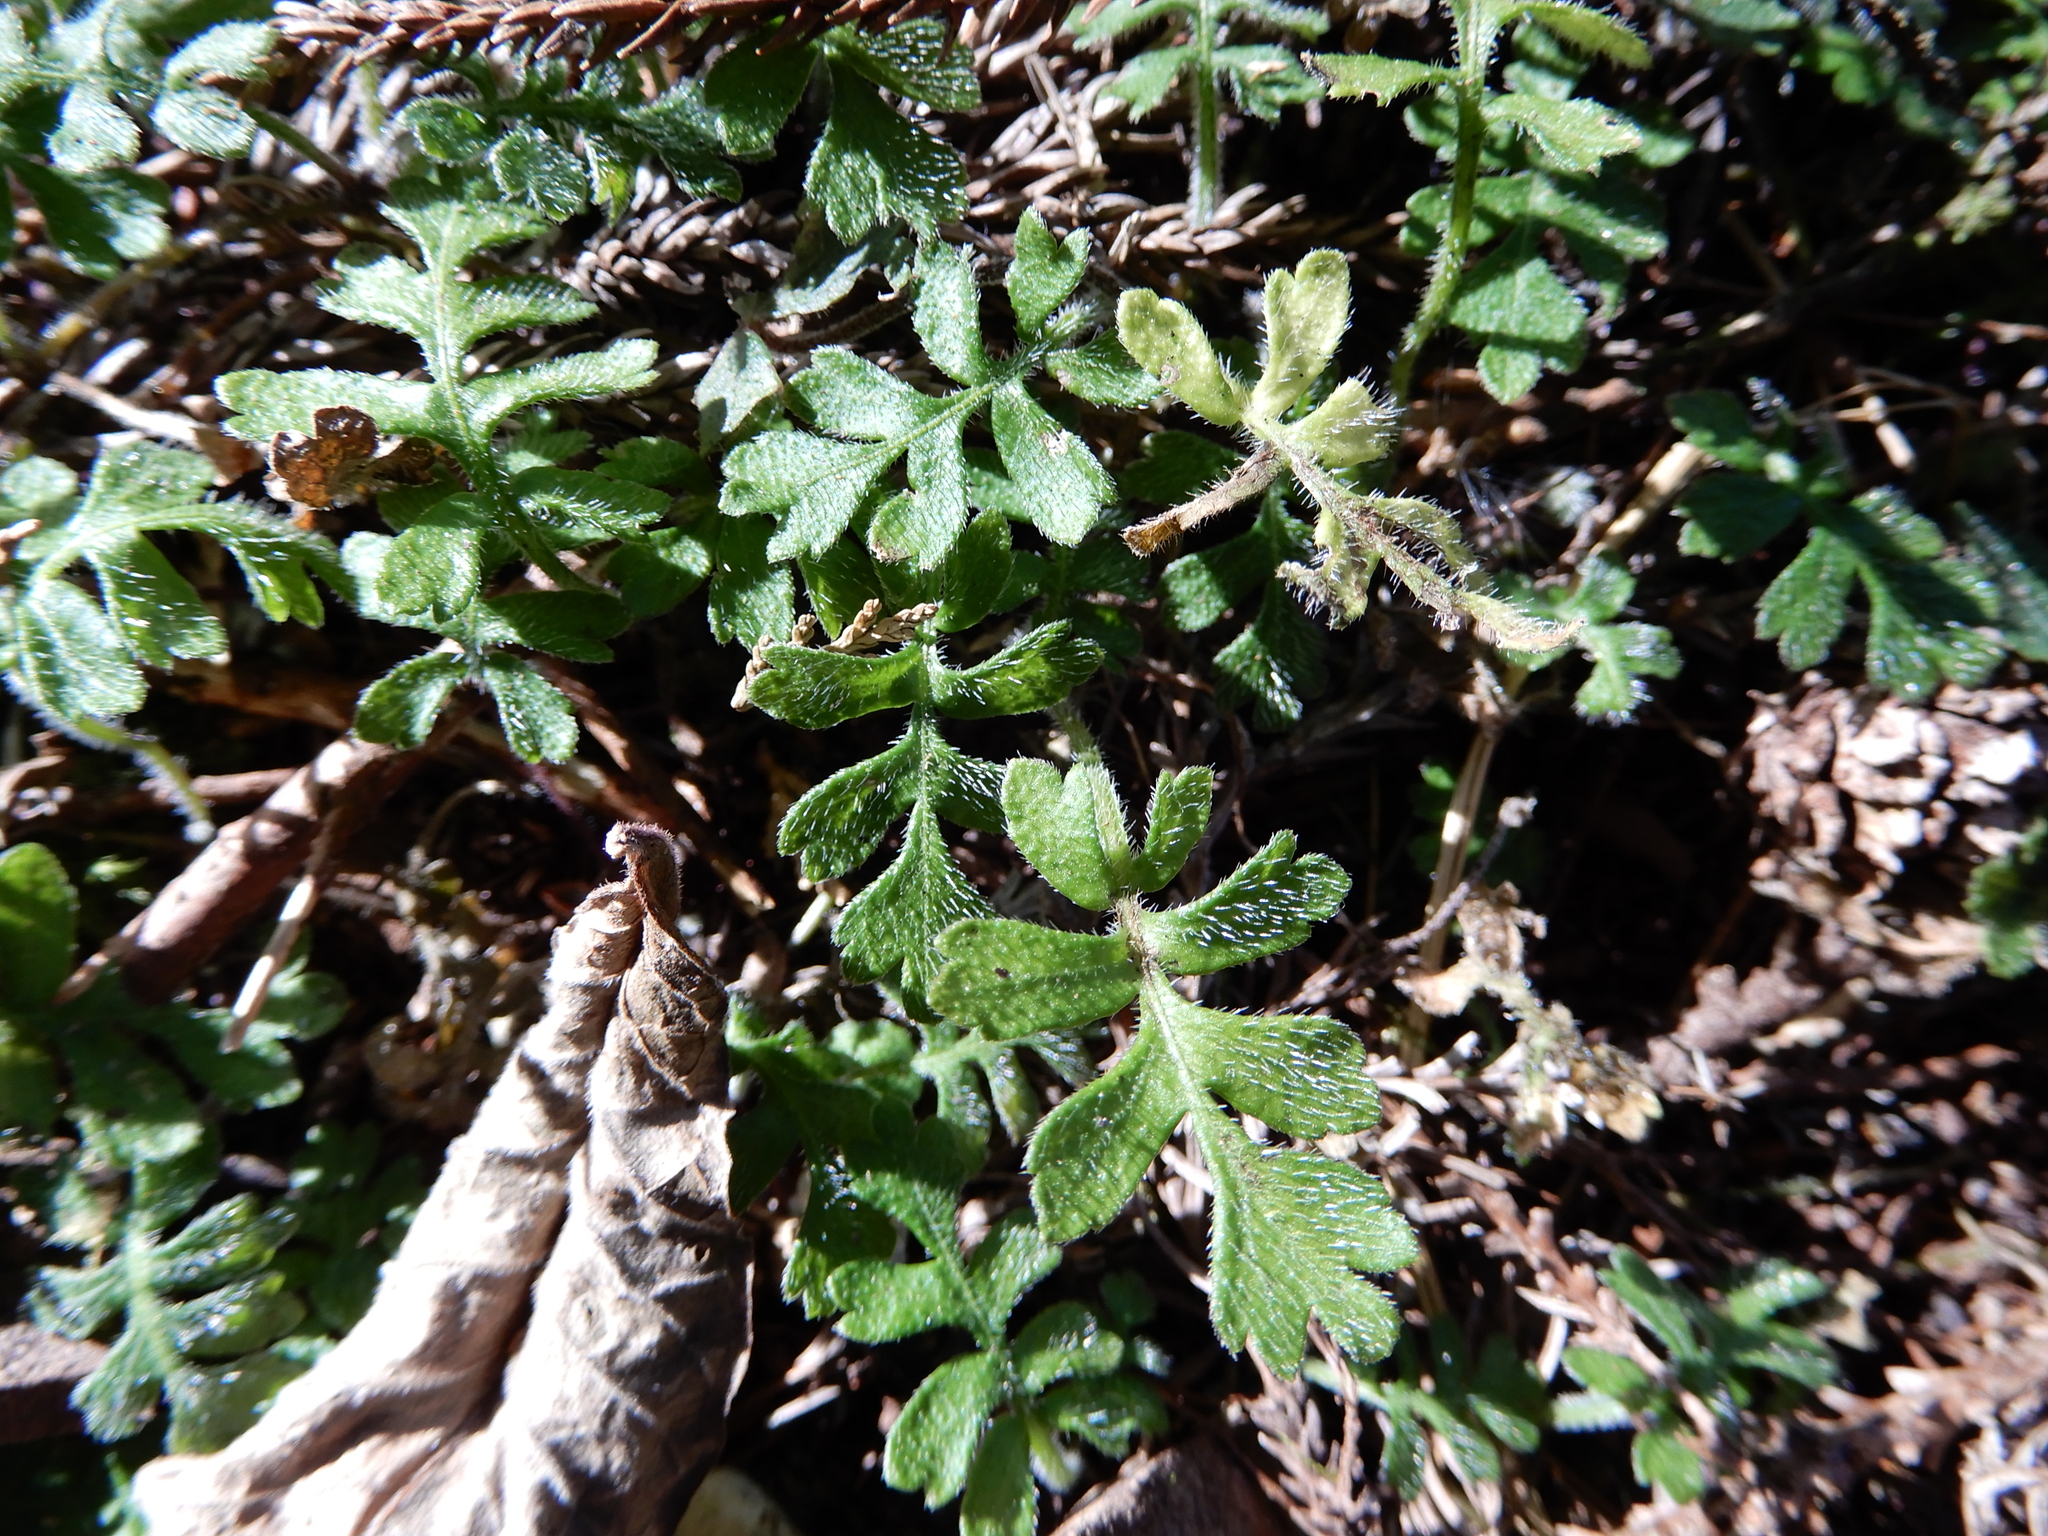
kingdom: Plantae
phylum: Tracheophyta
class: Magnoliopsida
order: Lamiales
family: Plantaginaceae
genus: Ellisiophyllum
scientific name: Ellisiophyllum pinnatum
